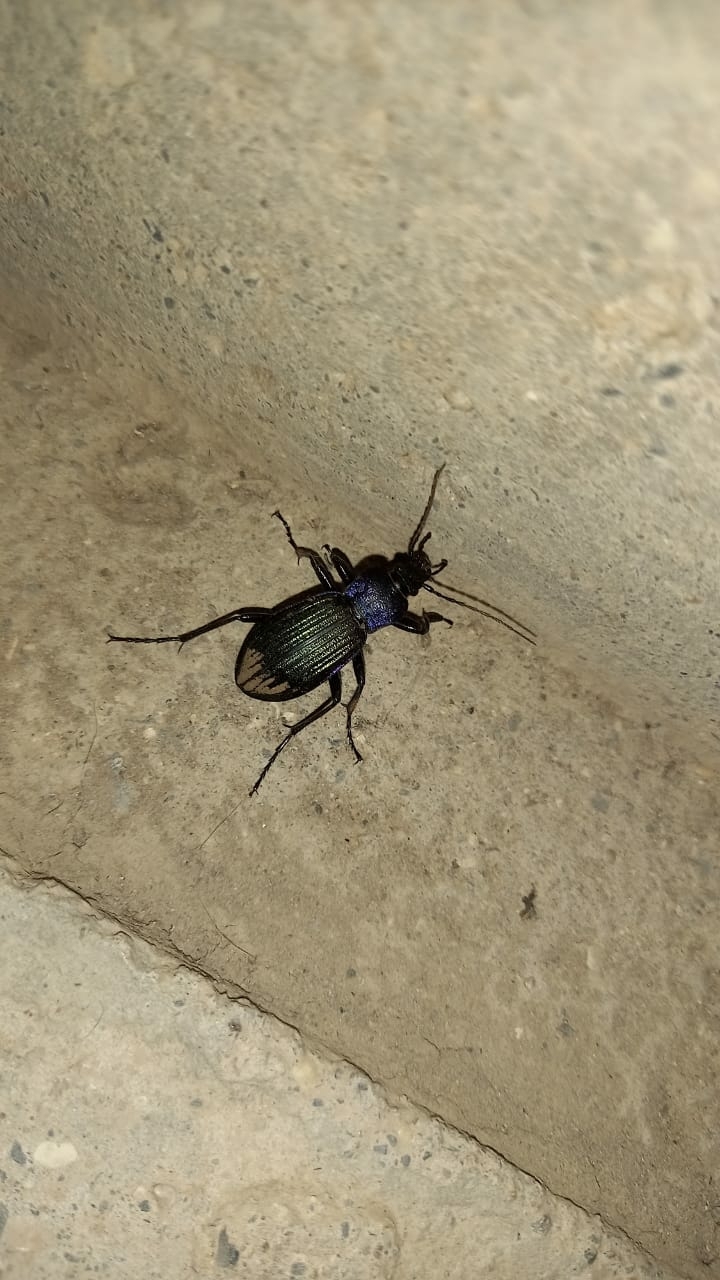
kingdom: Animalia
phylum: Arthropoda
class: Insecta
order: Coleoptera
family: Carabidae
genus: Carabus
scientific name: Carabus exaratus
